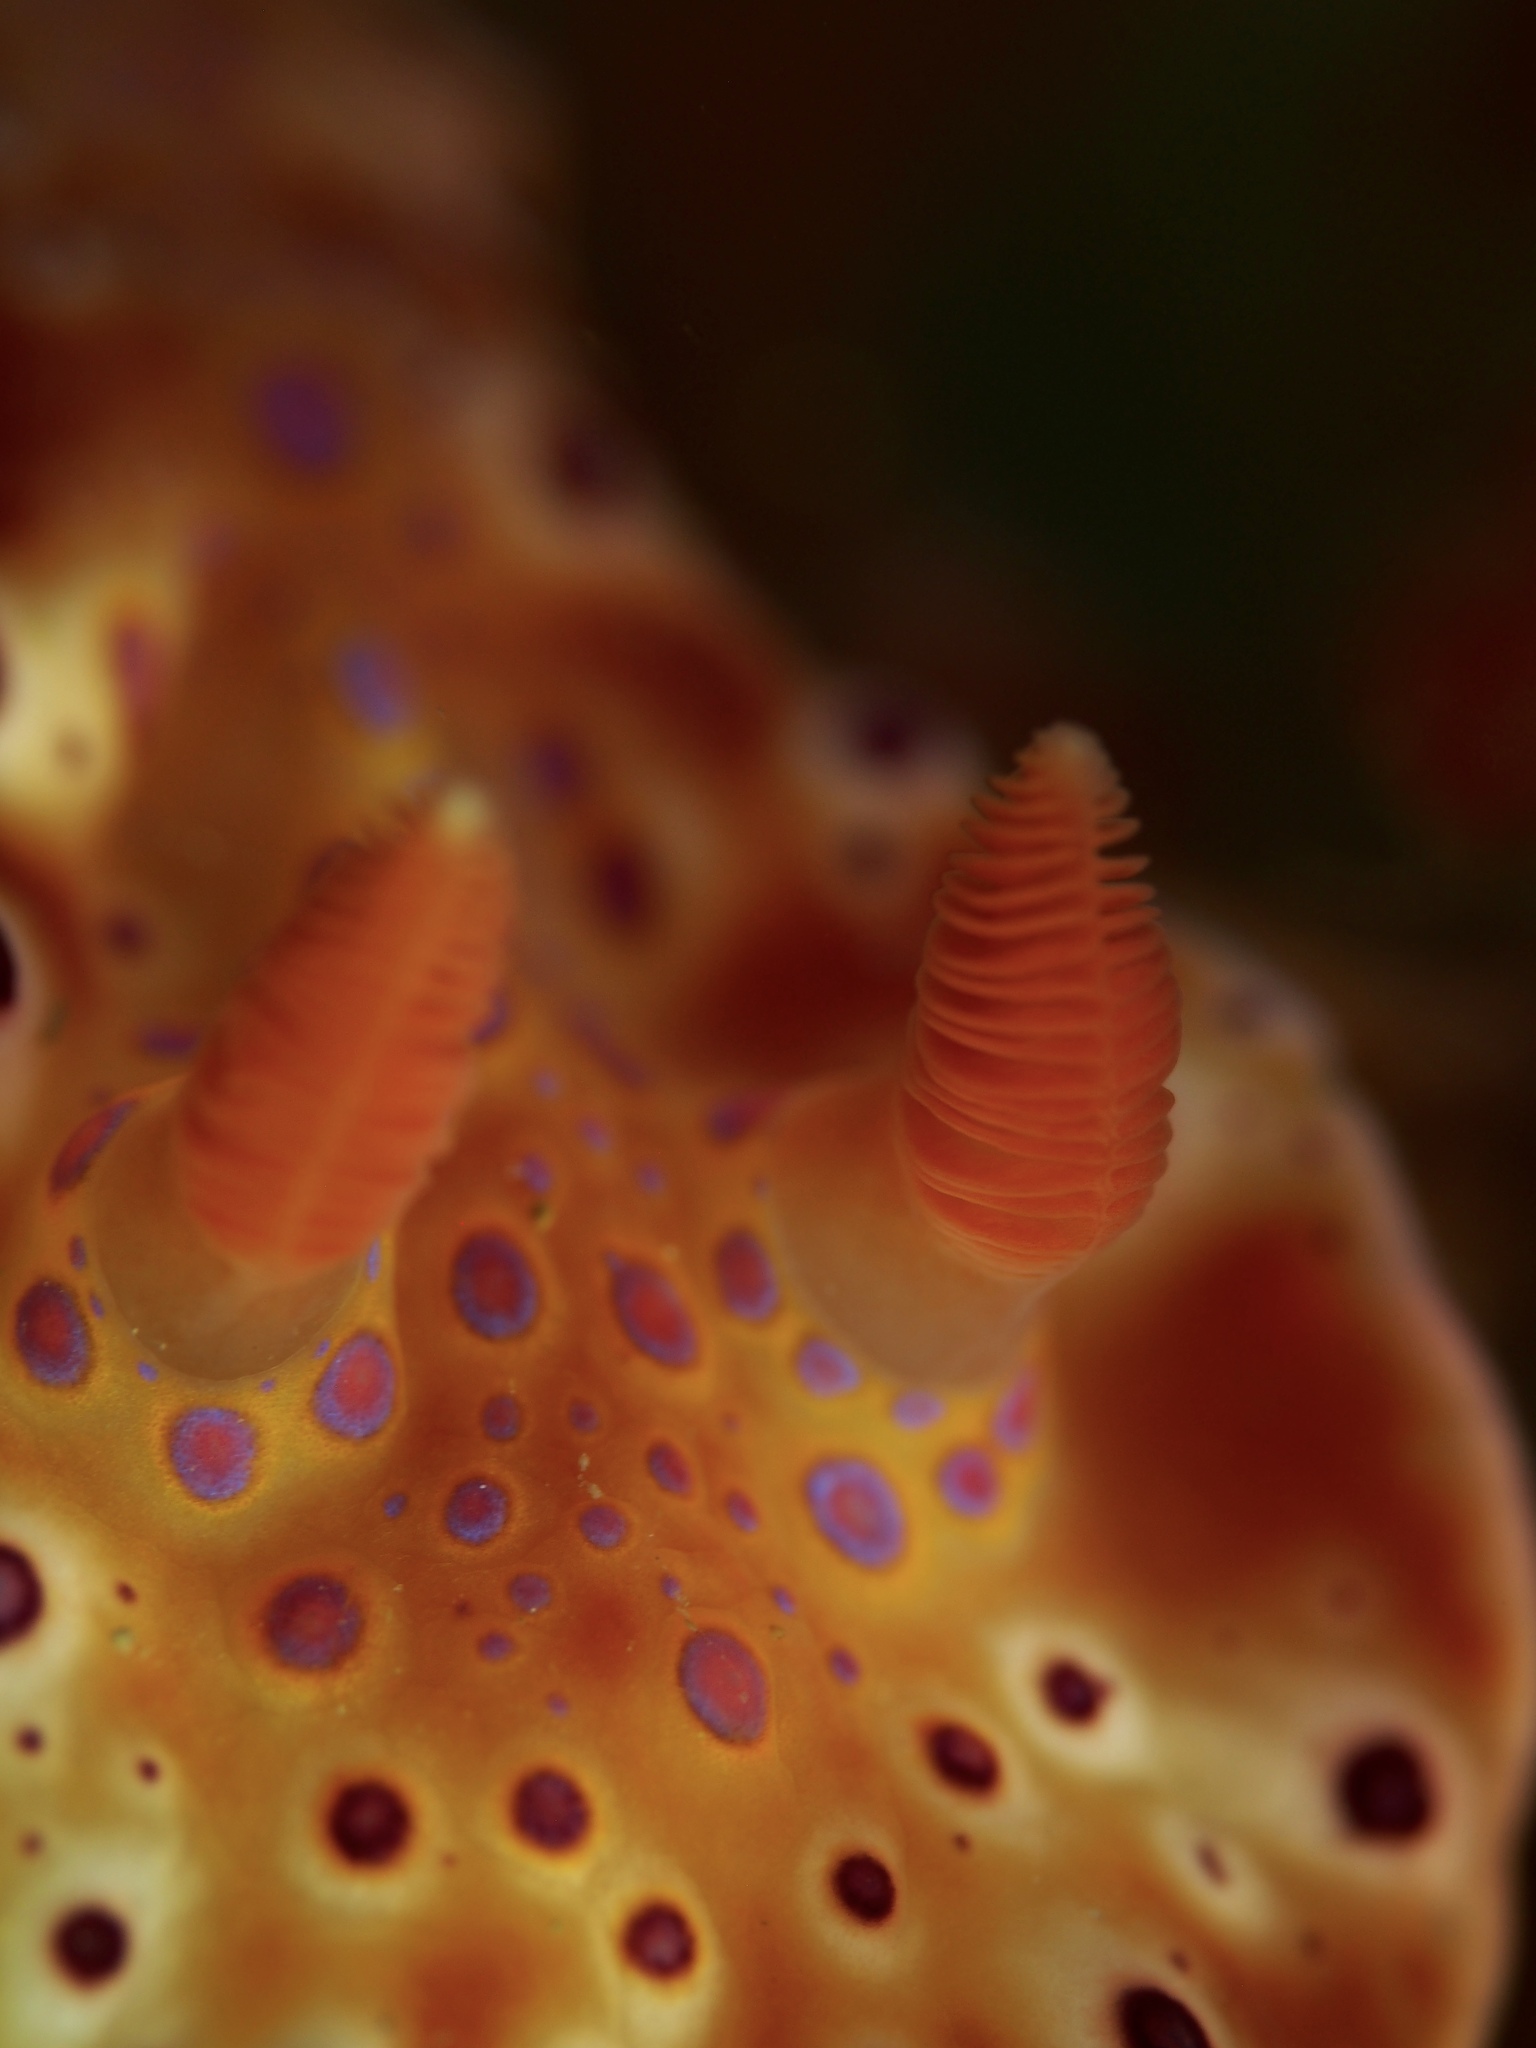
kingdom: Animalia
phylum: Mollusca
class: Gastropoda
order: Nudibranchia
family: Chromodorididae
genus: Ceratosoma
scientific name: Ceratosoma brevicaudatum
